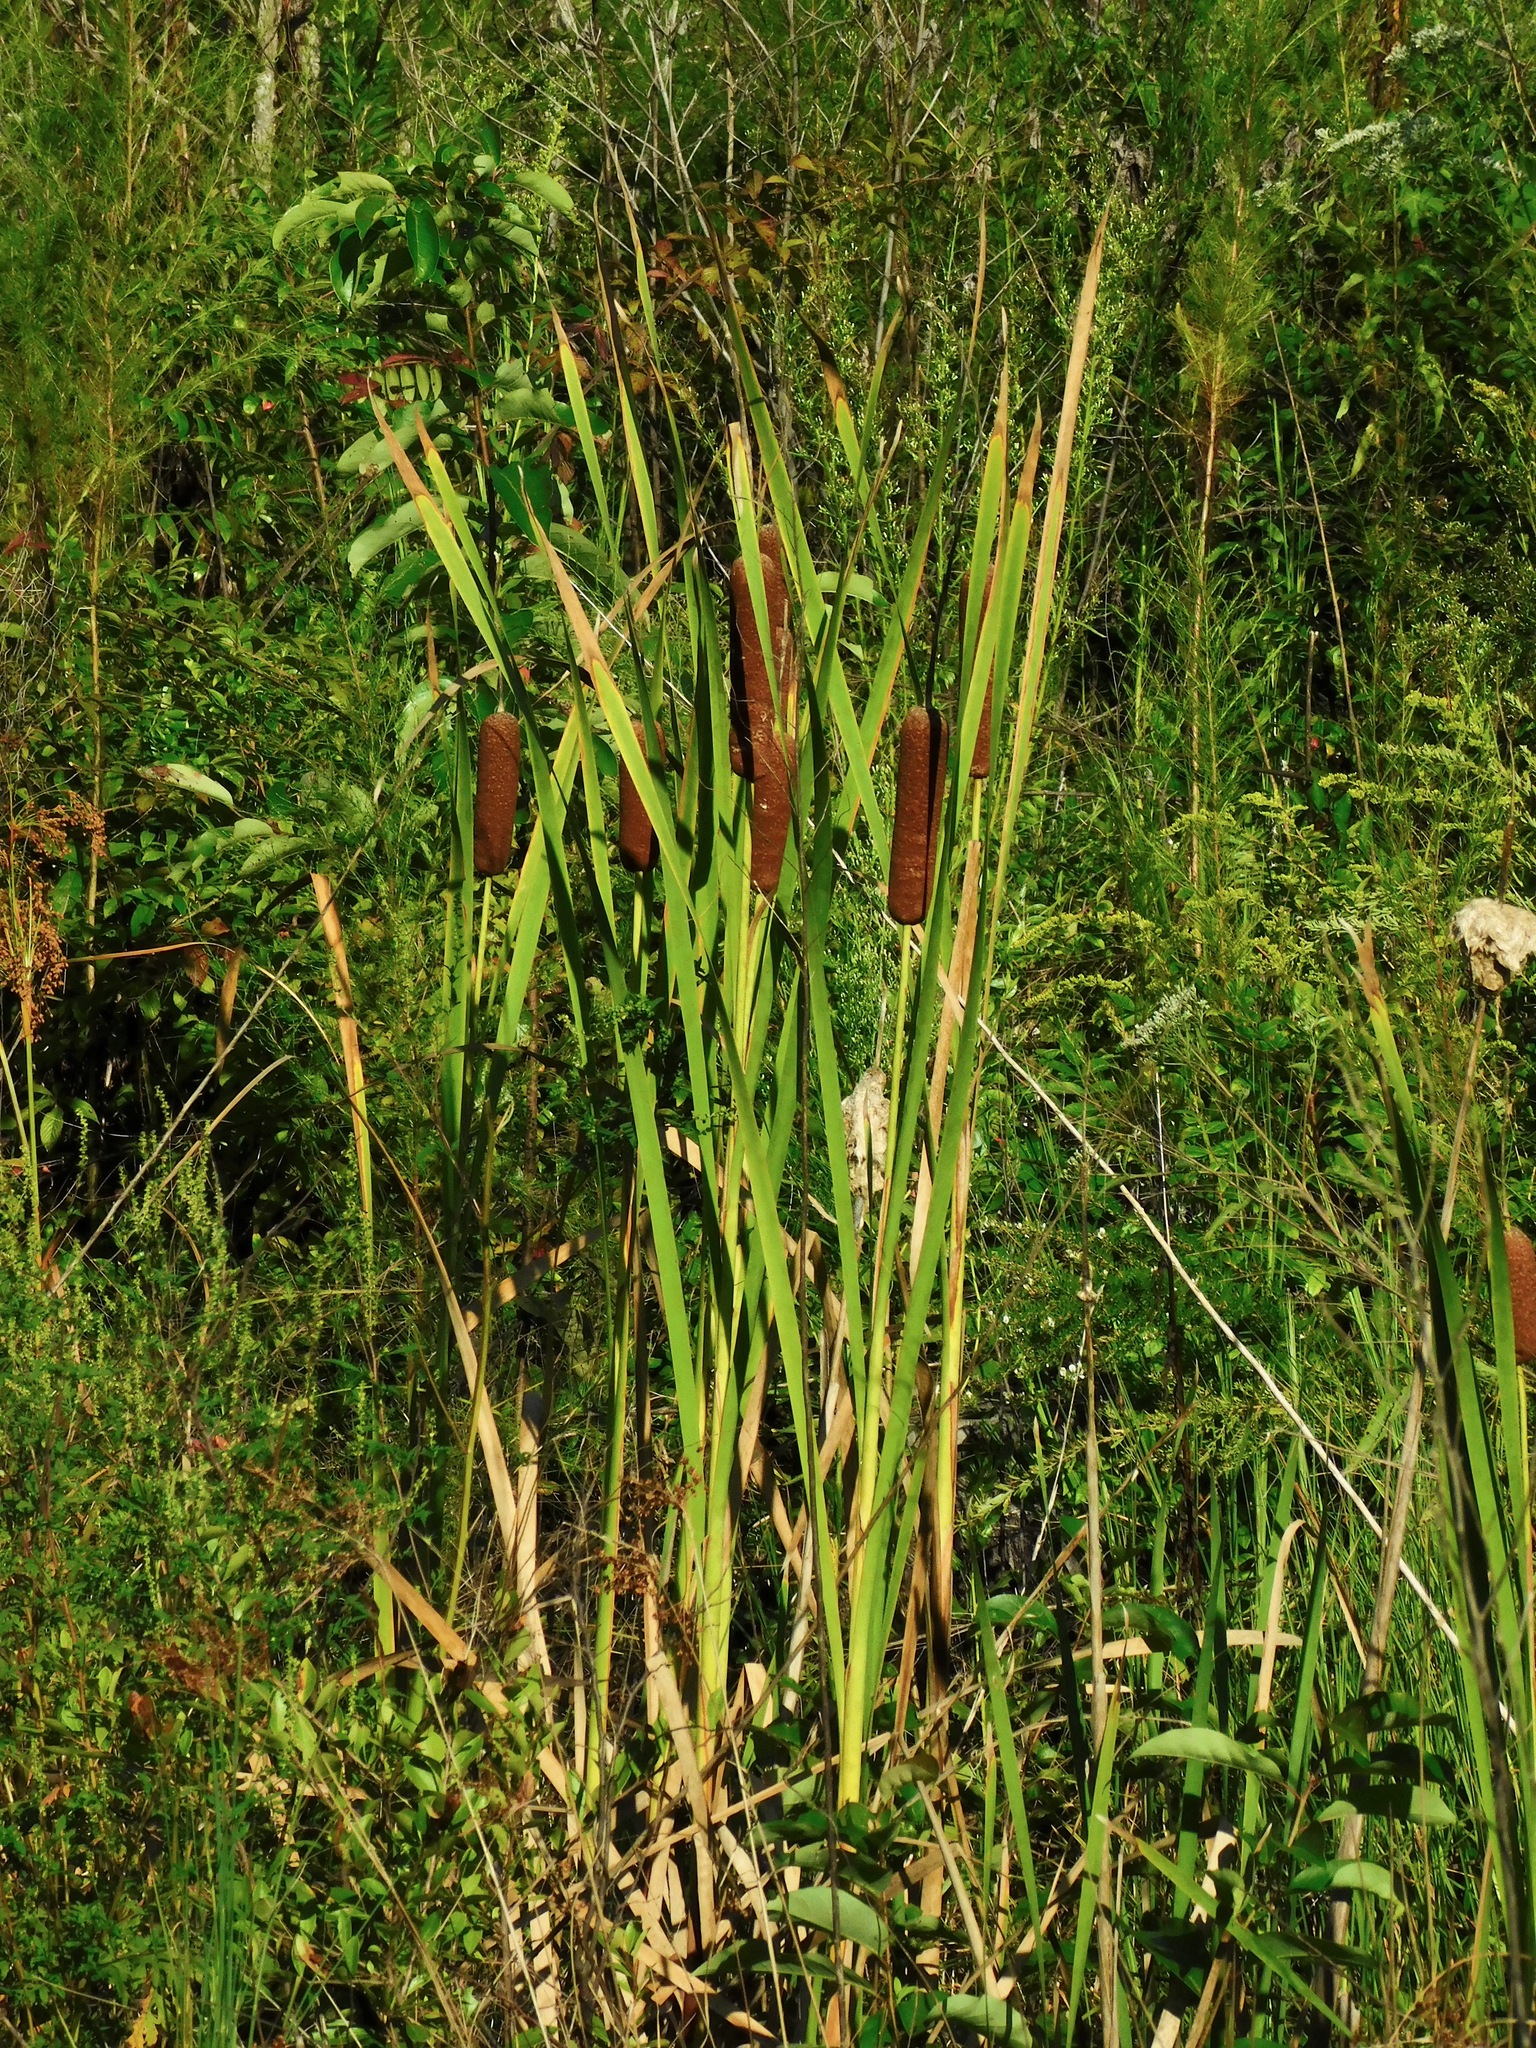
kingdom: Plantae
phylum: Tracheophyta
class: Liliopsida
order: Poales
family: Typhaceae
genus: Typha
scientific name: Typha latifolia
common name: Broadleaf cattail
